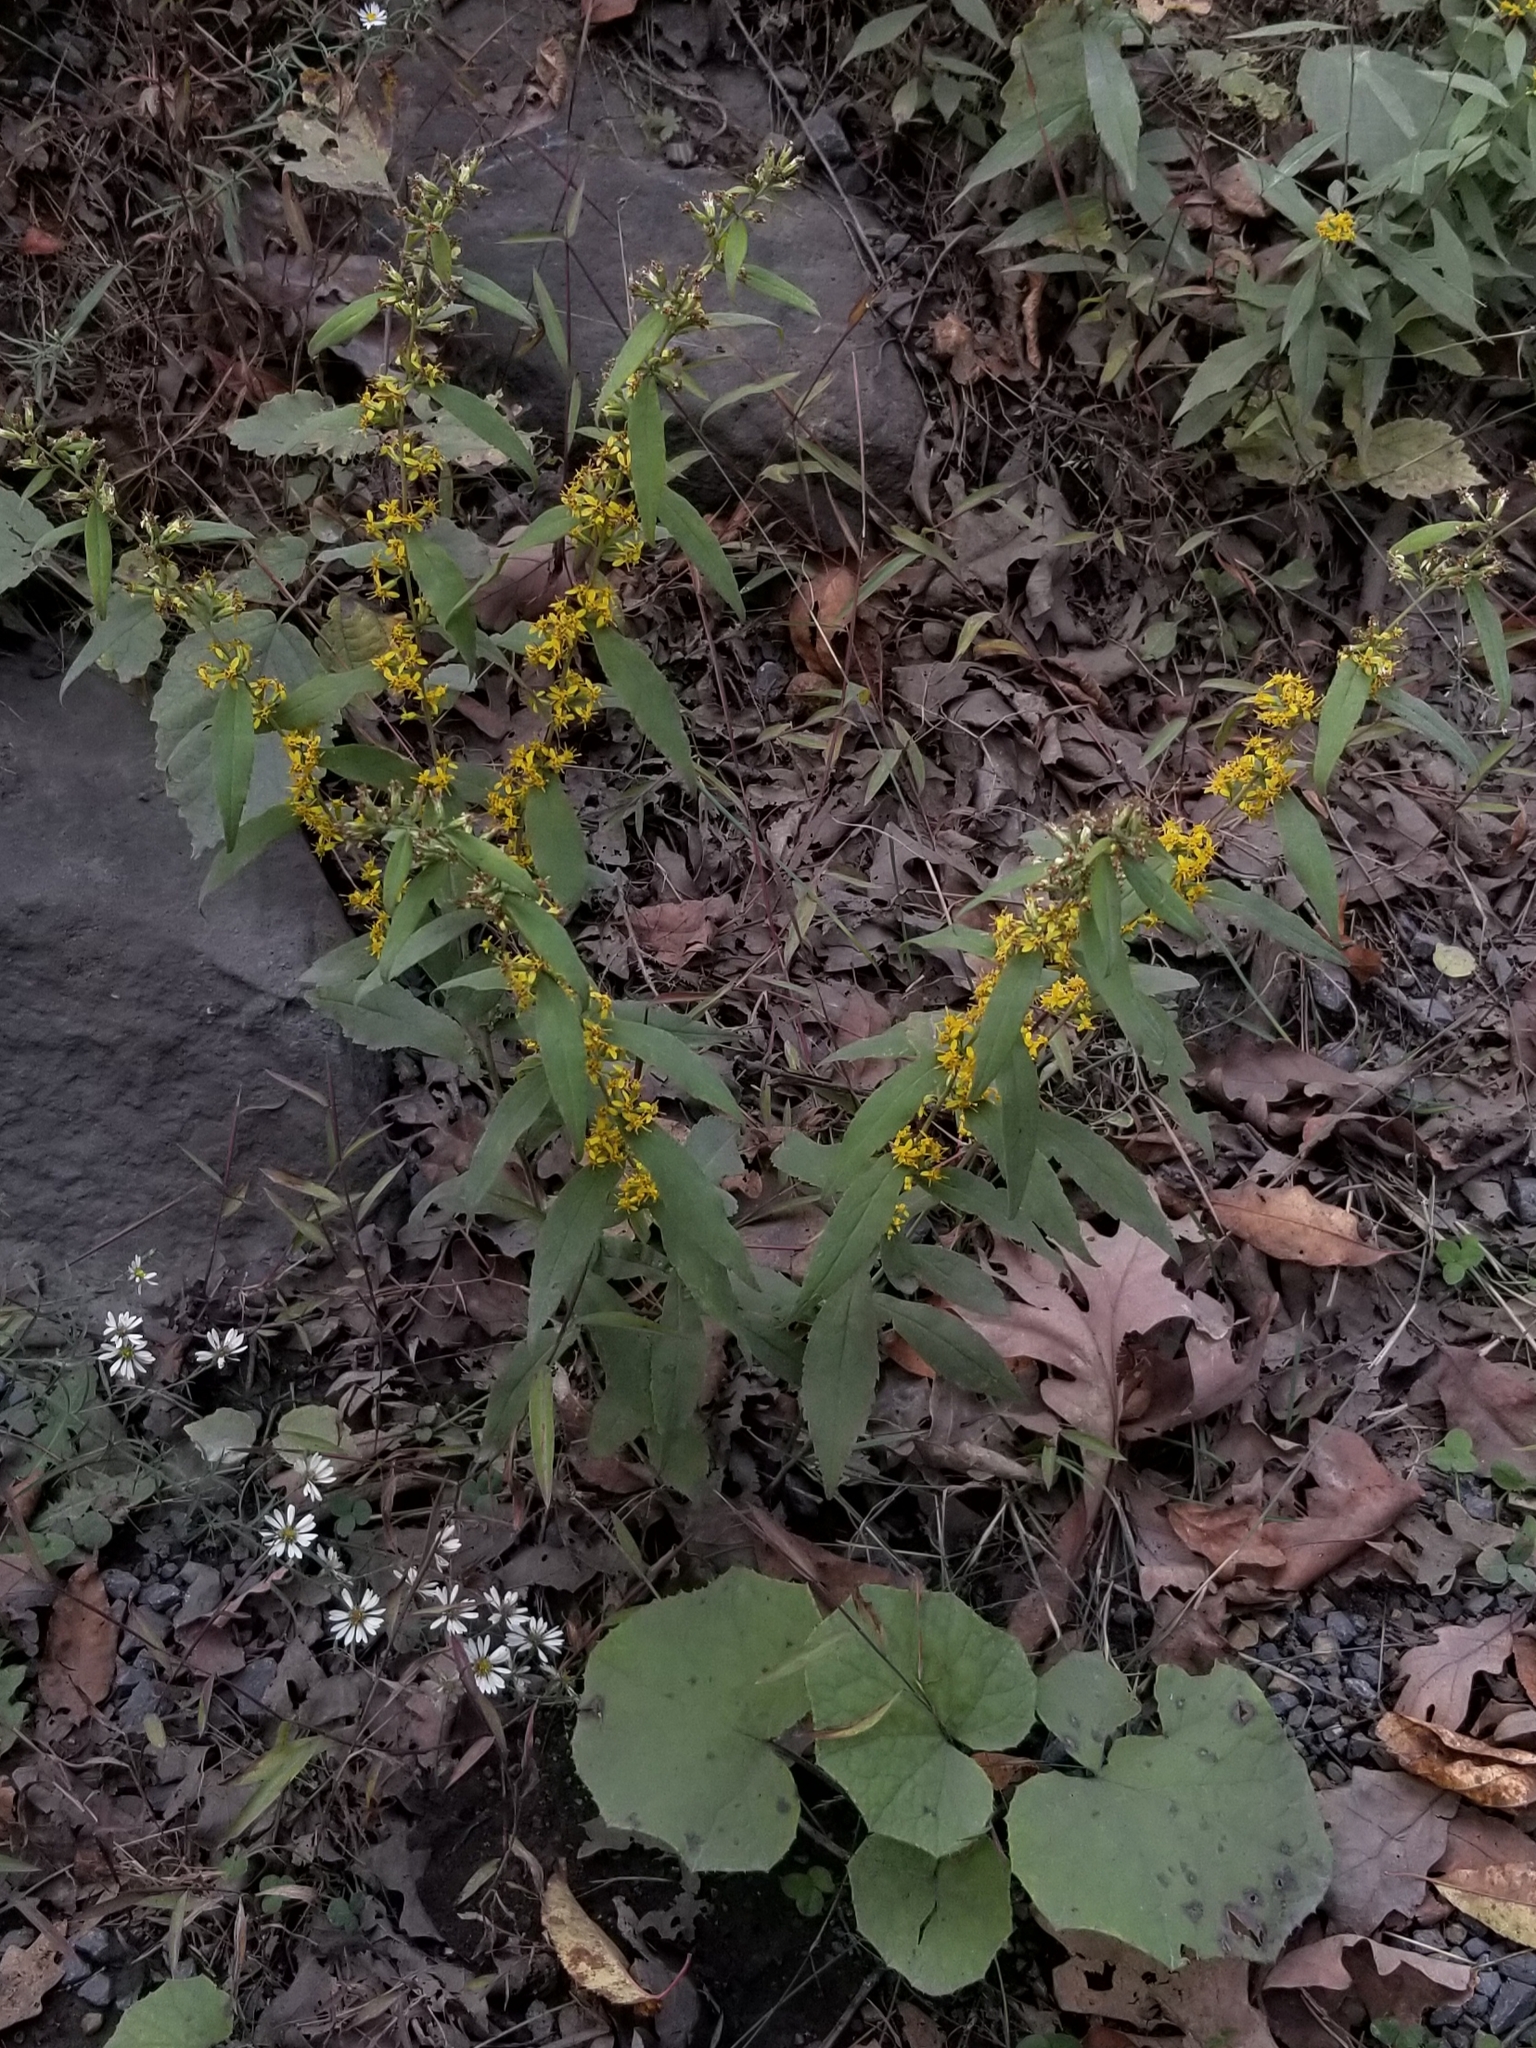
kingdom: Plantae
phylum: Tracheophyta
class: Magnoliopsida
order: Asterales
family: Asteraceae
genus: Solidago
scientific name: Solidago caesia
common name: Woodland goldenrod
